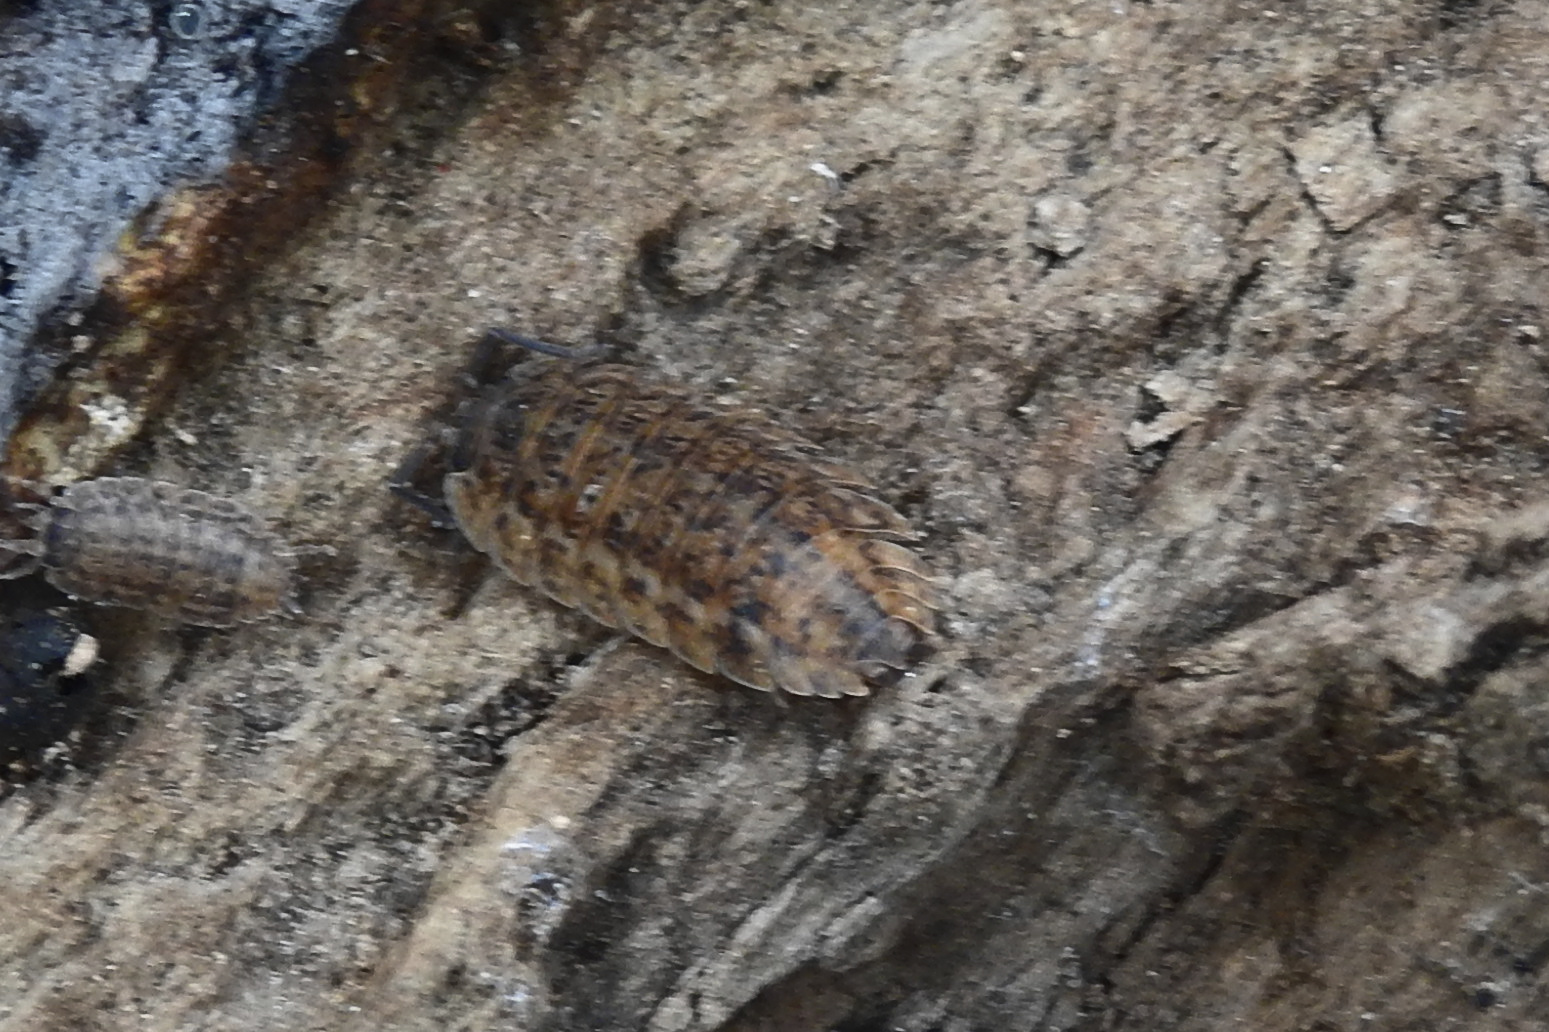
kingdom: Animalia
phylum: Arthropoda
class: Malacostraca
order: Isopoda
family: Trachelipodidae
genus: Trachelipus
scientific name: Trachelipus rathkii
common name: Isopod
